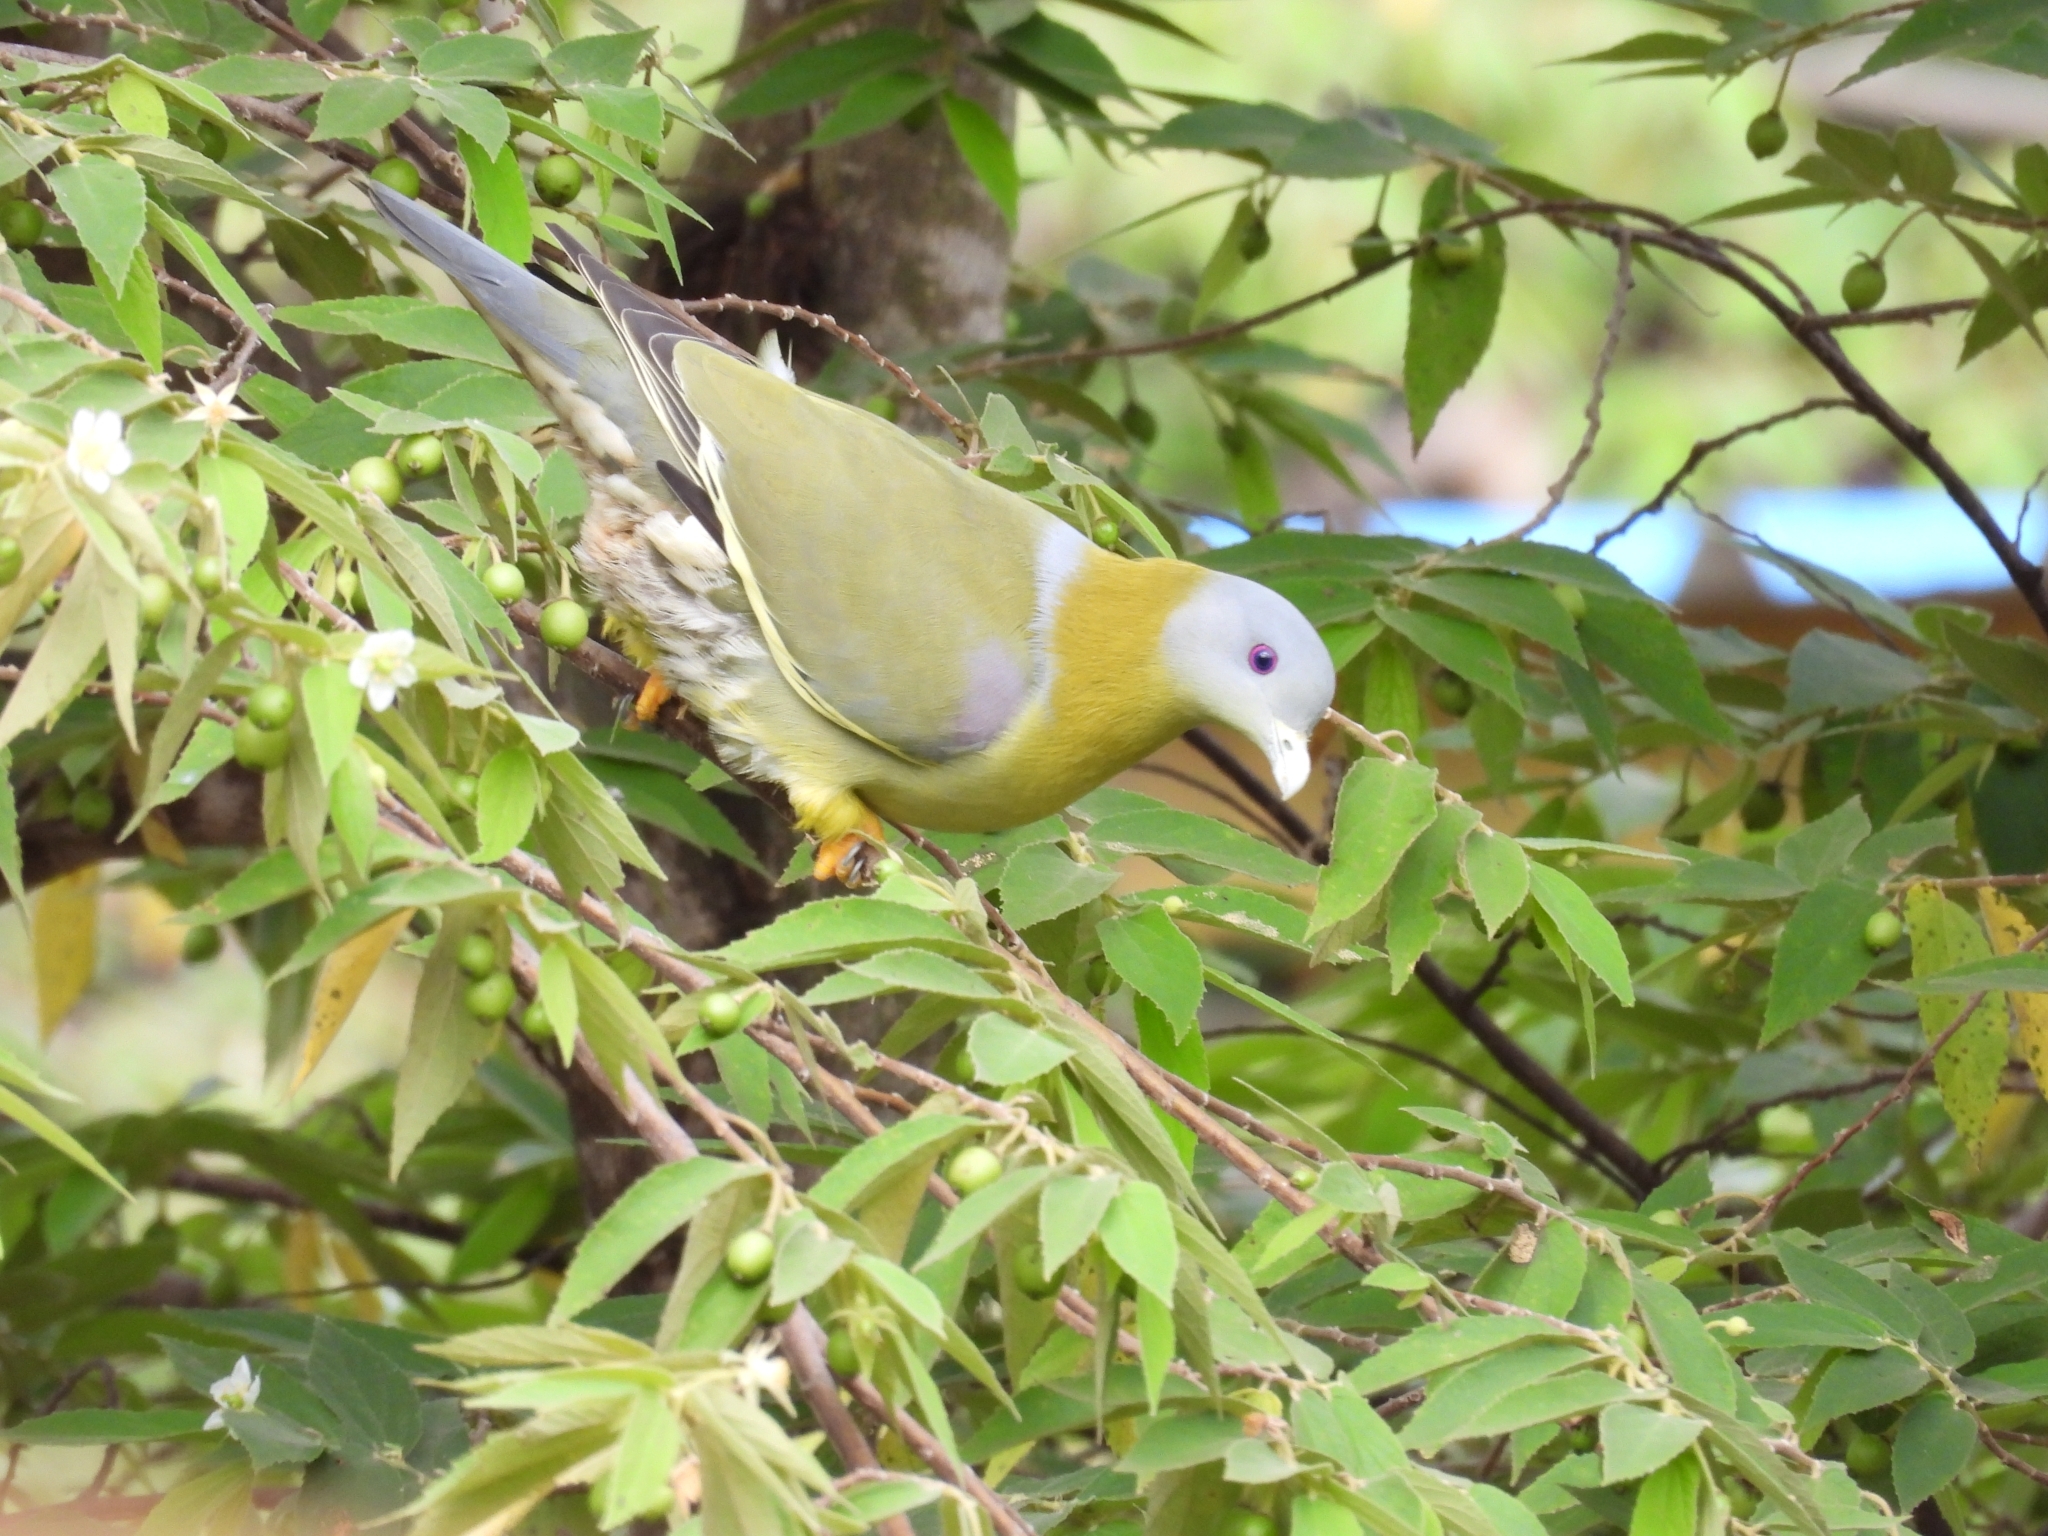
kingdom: Animalia
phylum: Chordata
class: Aves
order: Columbiformes
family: Columbidae
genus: Treron
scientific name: Treron phoenicopterus
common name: Yellow-footed green pigeon
